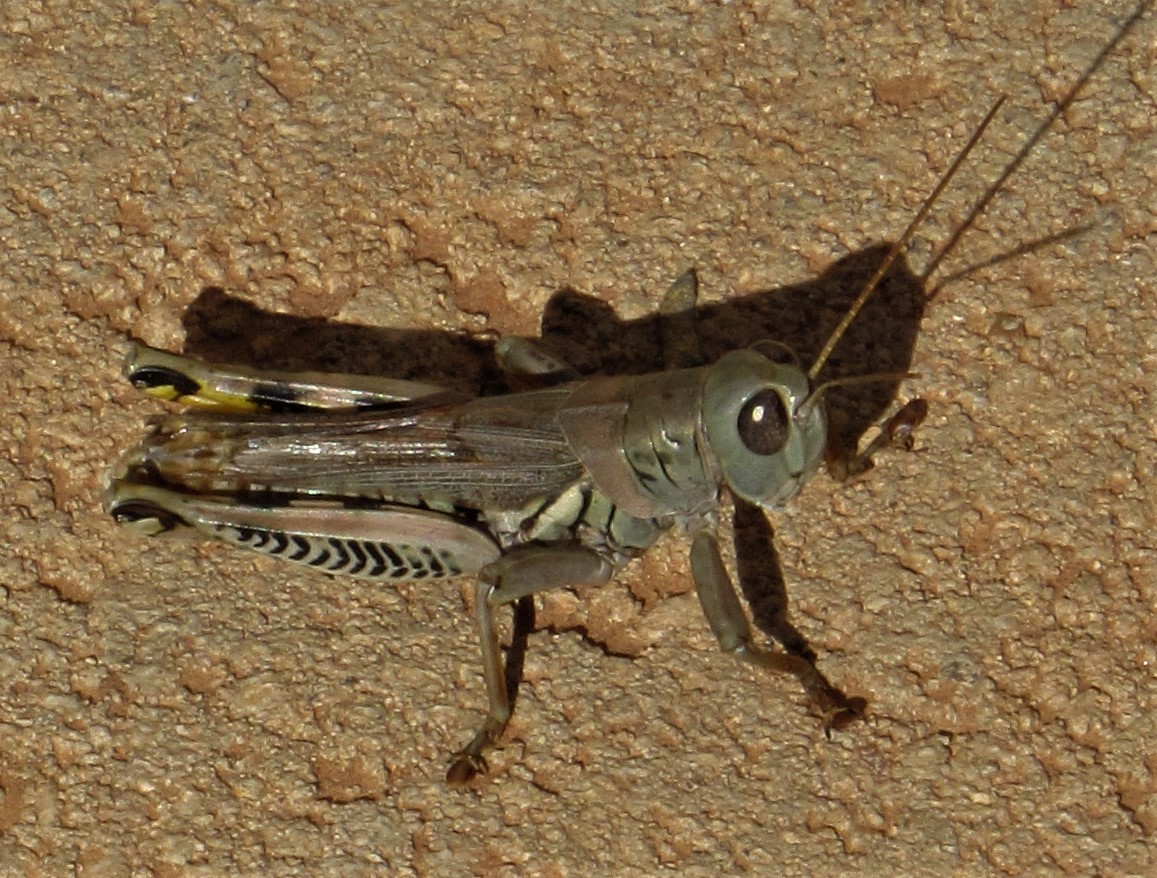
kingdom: Animalia
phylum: Arthropoda
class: Insecta
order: Orthoptera
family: Acrididae
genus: Melanoplus
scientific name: Melanoplus differentialis
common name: Differential grasshopper
